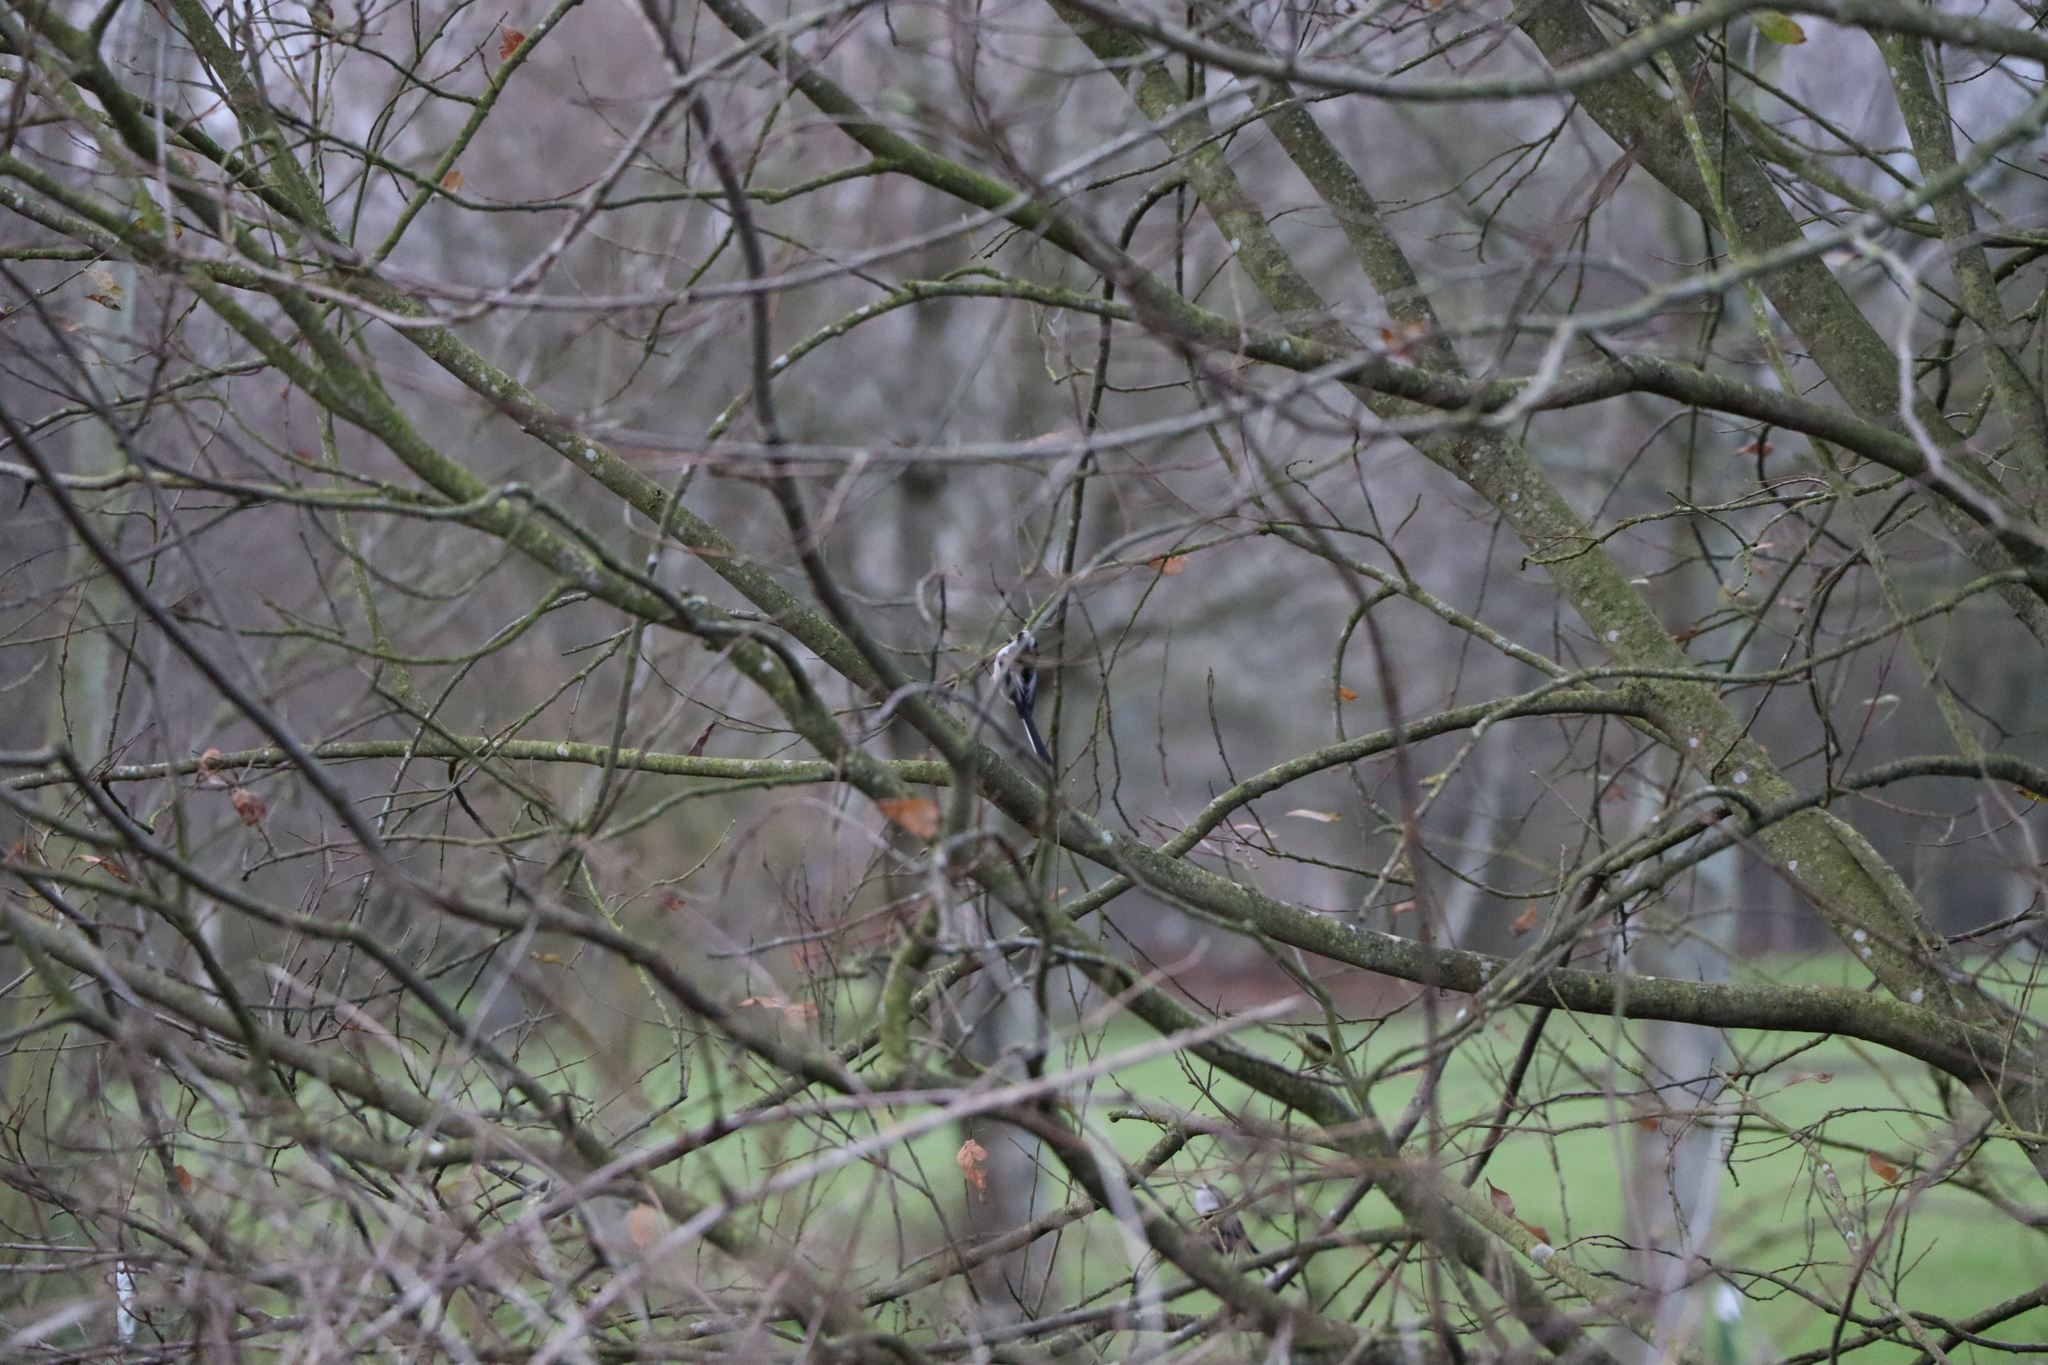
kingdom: Animalia
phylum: Chordata
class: Aves
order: Passeriformes
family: Aegithalidae
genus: Aegithalos
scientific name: Aegithalos caudatus
